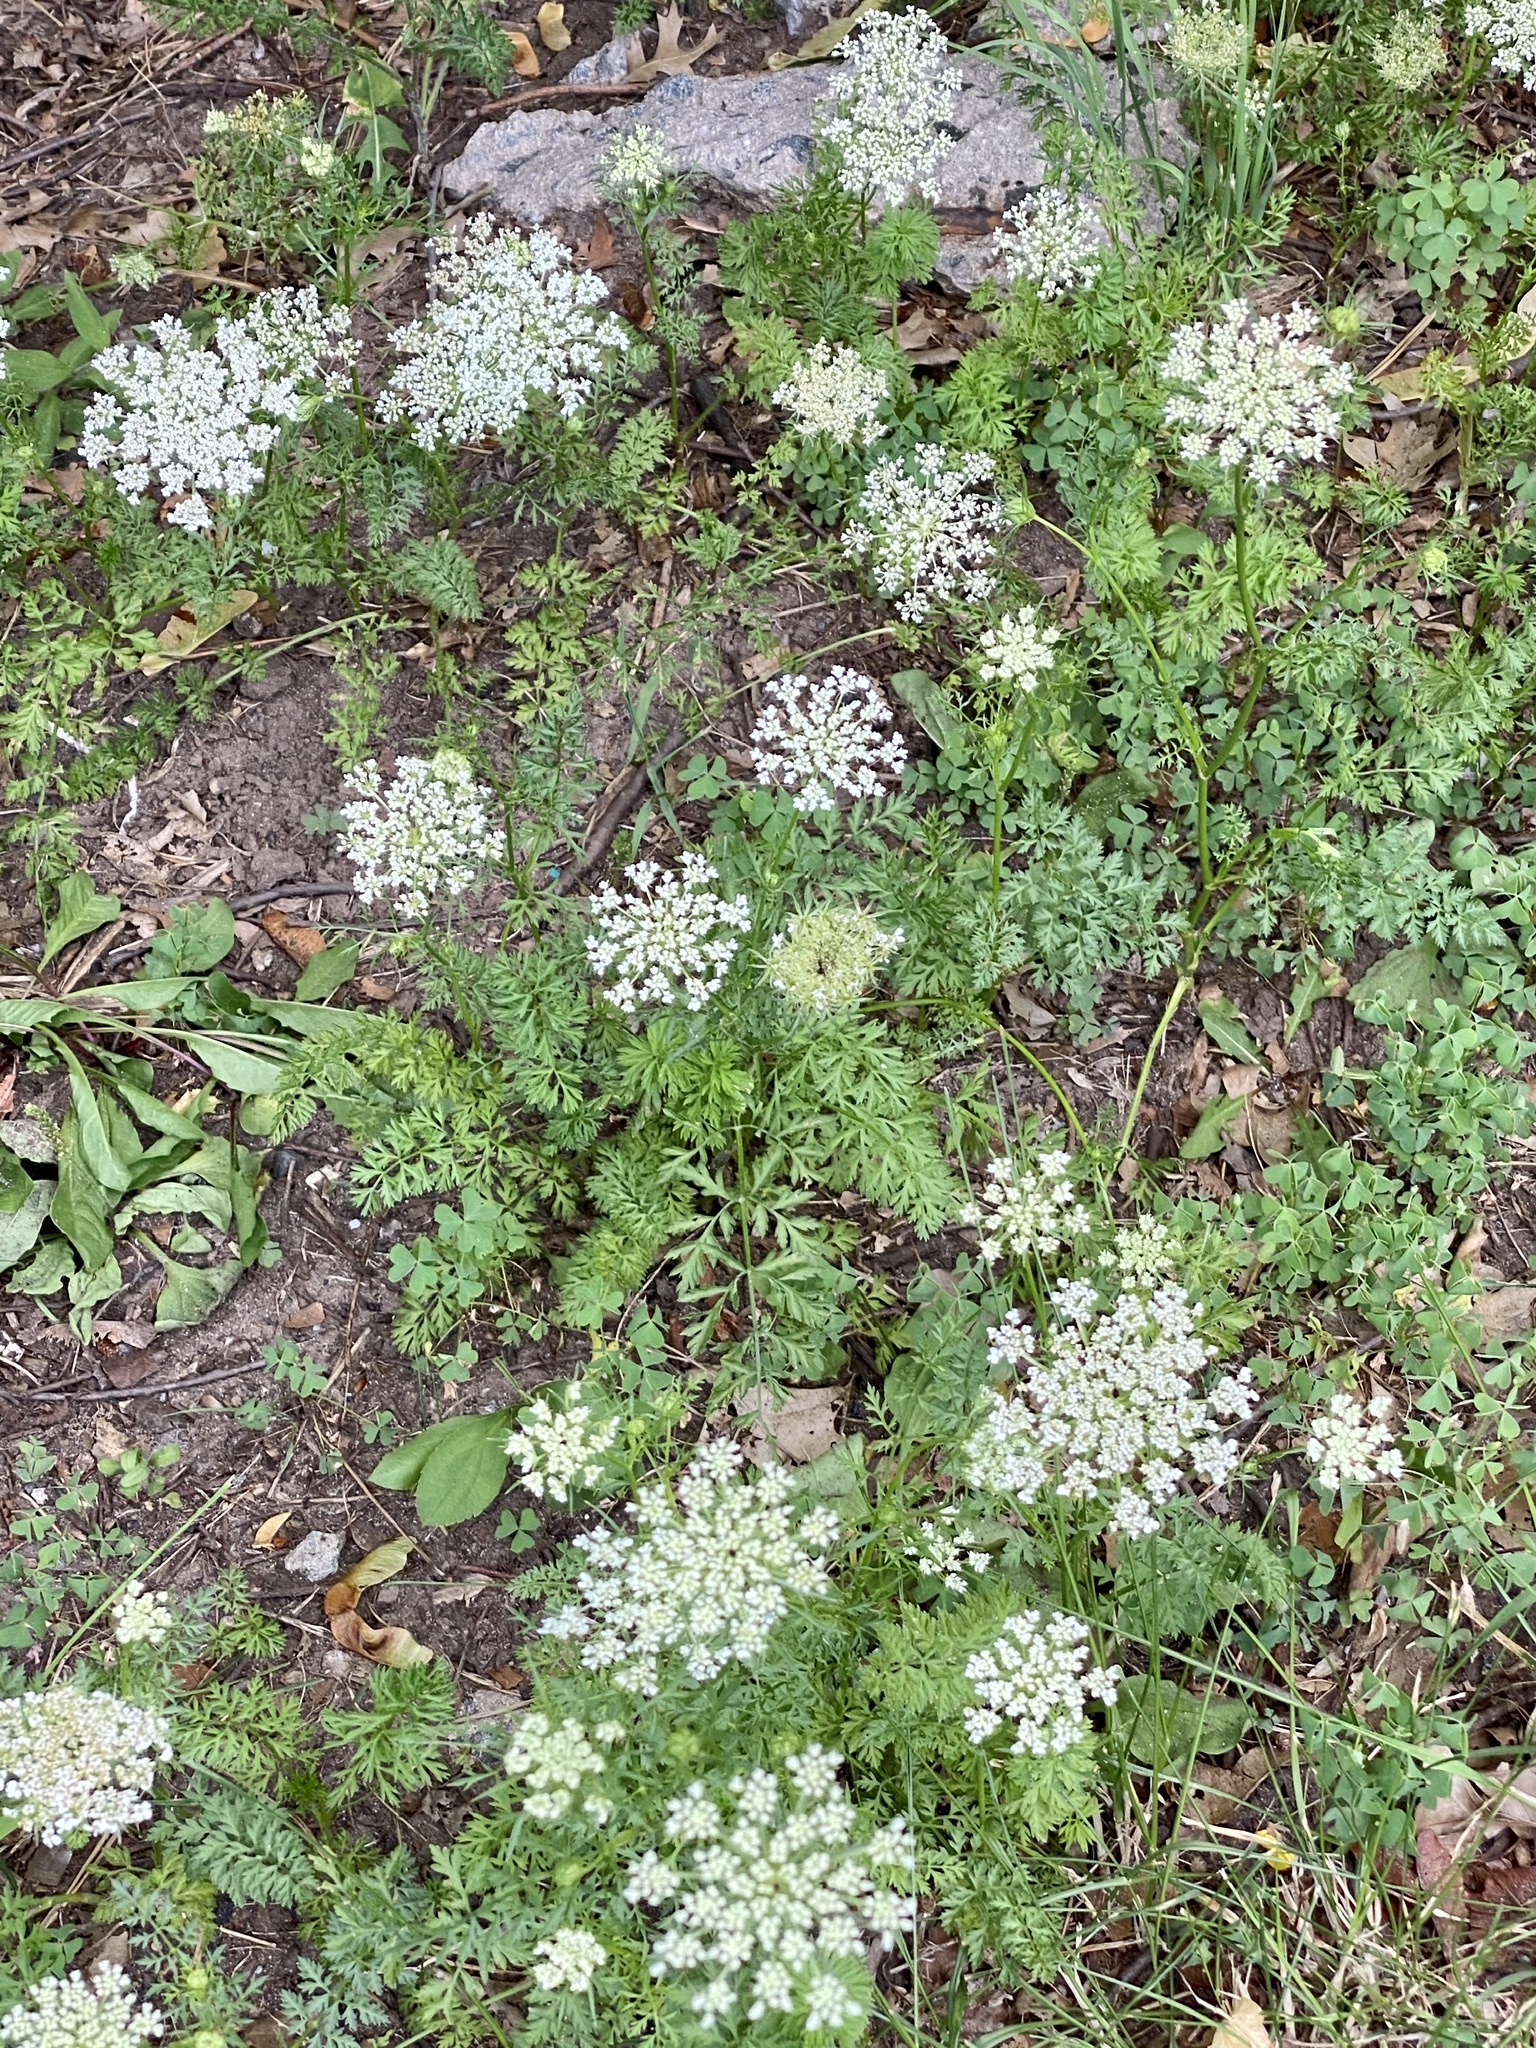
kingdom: Plantae
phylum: Tracheophyta
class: Magnoliopsida
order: Apiales
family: Apiaceae
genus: Daucus
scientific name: Daucus carota
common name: Wild carrot
